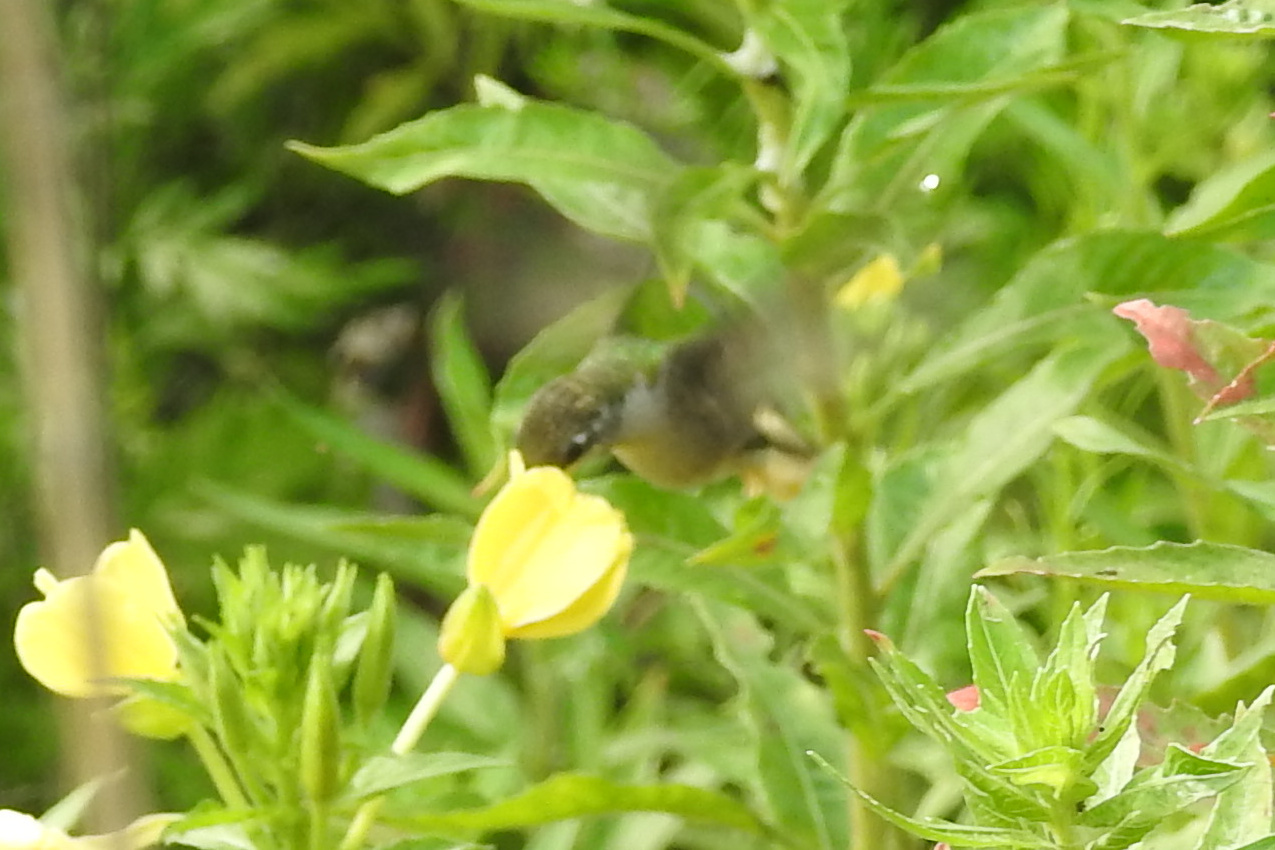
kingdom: Animalia
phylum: Chordata
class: Aves
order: Apodiformes
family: Trochilidae
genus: Archilochus
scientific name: Archilochus colubris
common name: Ruby-throated hummingbird
